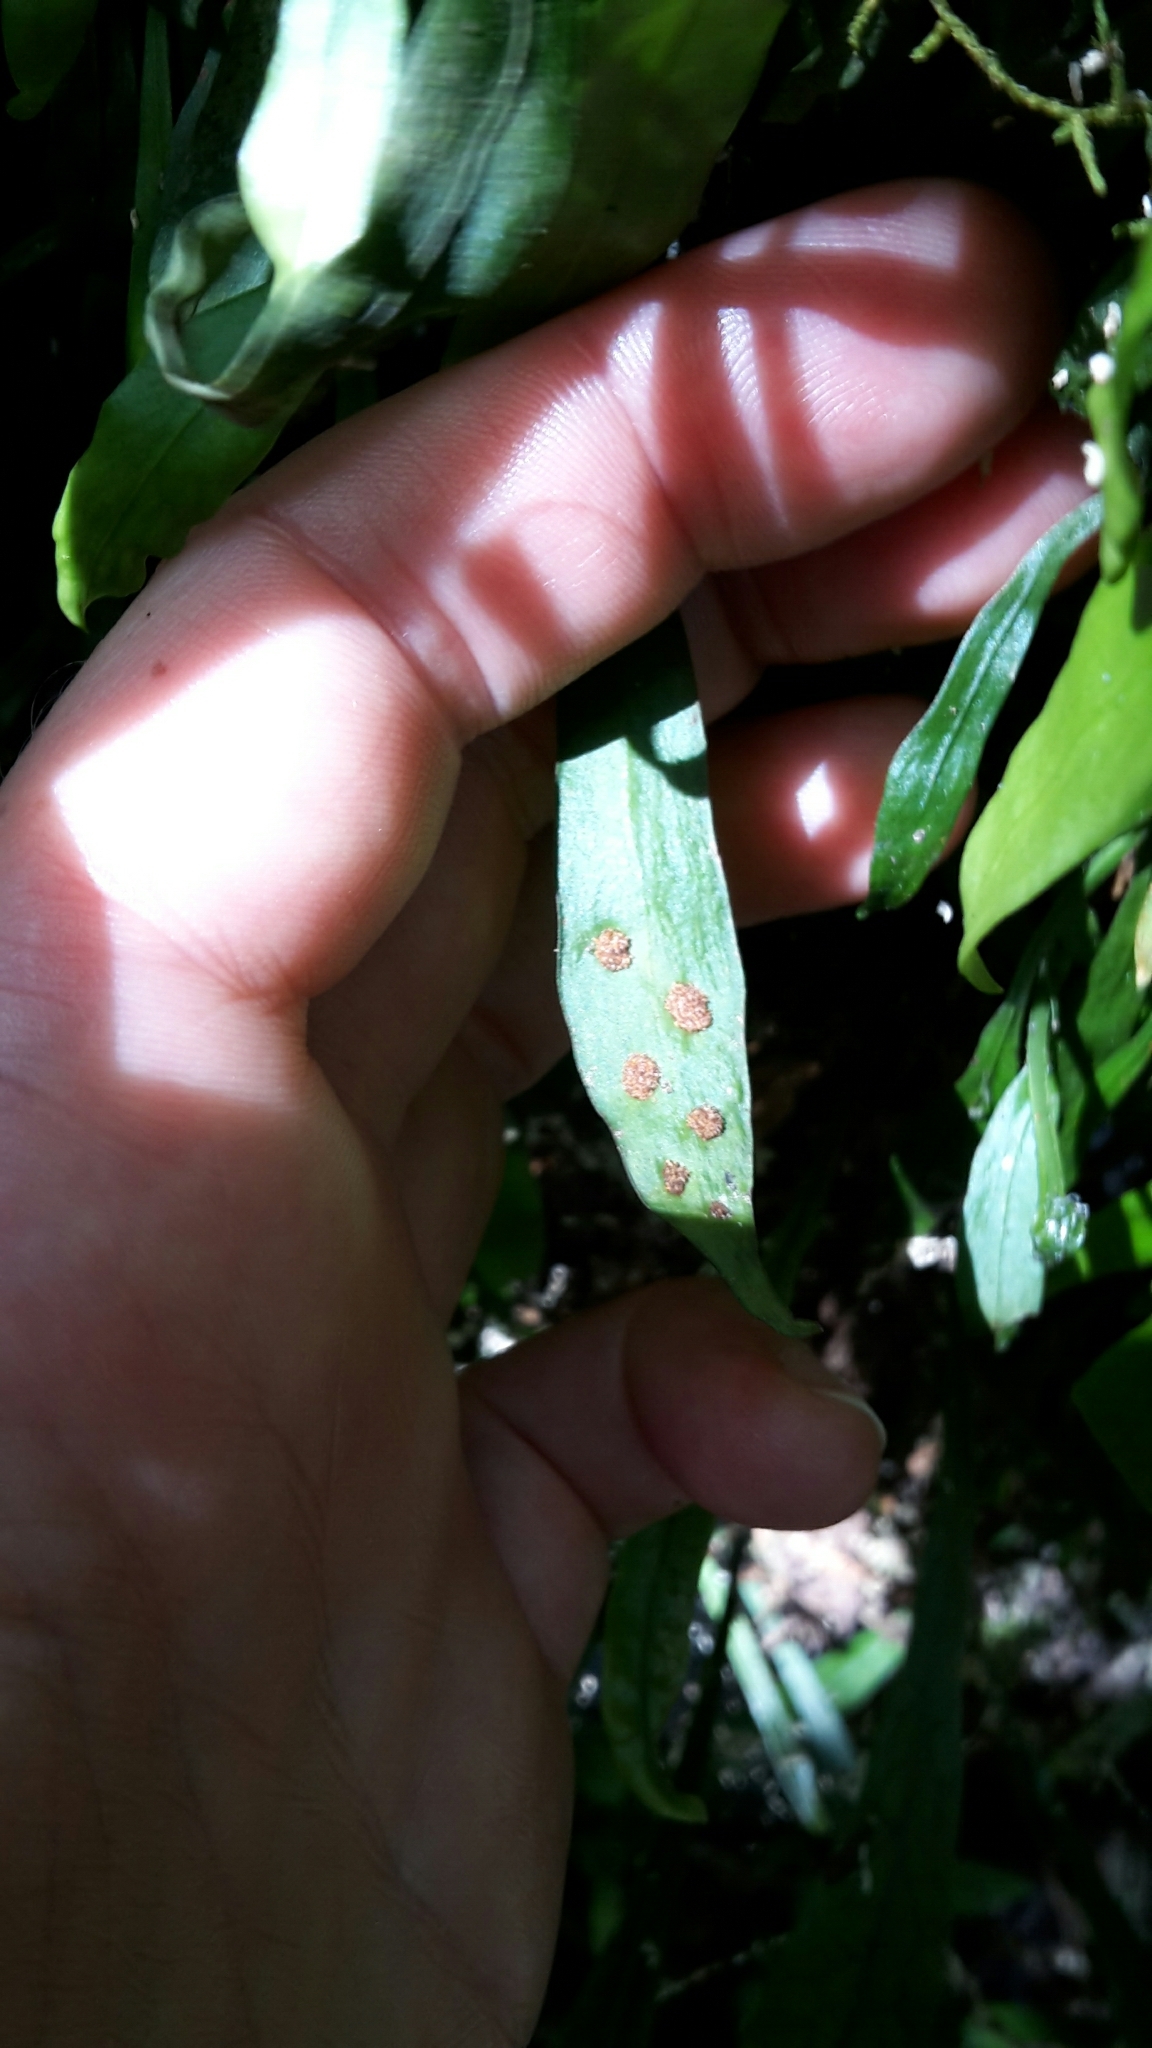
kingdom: Plantae
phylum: Tracheophyta
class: Polypodiopsida
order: Polypodiales
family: Polypodiaceae
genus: Loxogramme
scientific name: Loxogramme dictyopteris
